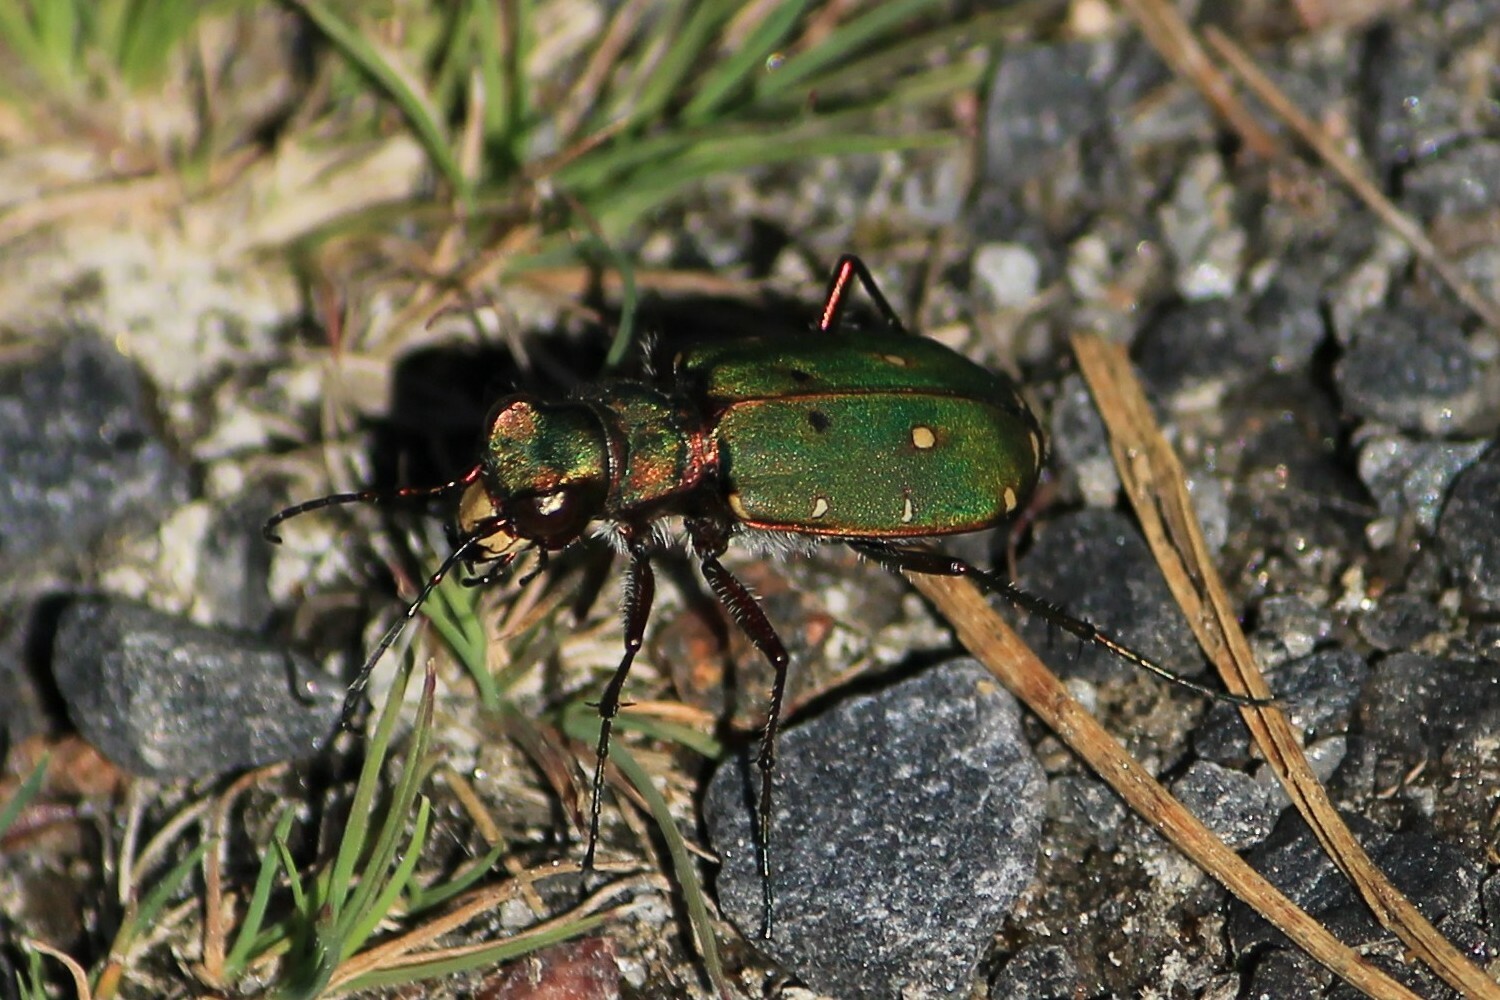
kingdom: Animalia
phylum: Arthropoda
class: Insecta
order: Coleoptera
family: Carabidae
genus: Cicindela
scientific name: Cicindela campestris
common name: Common tiger beetle
